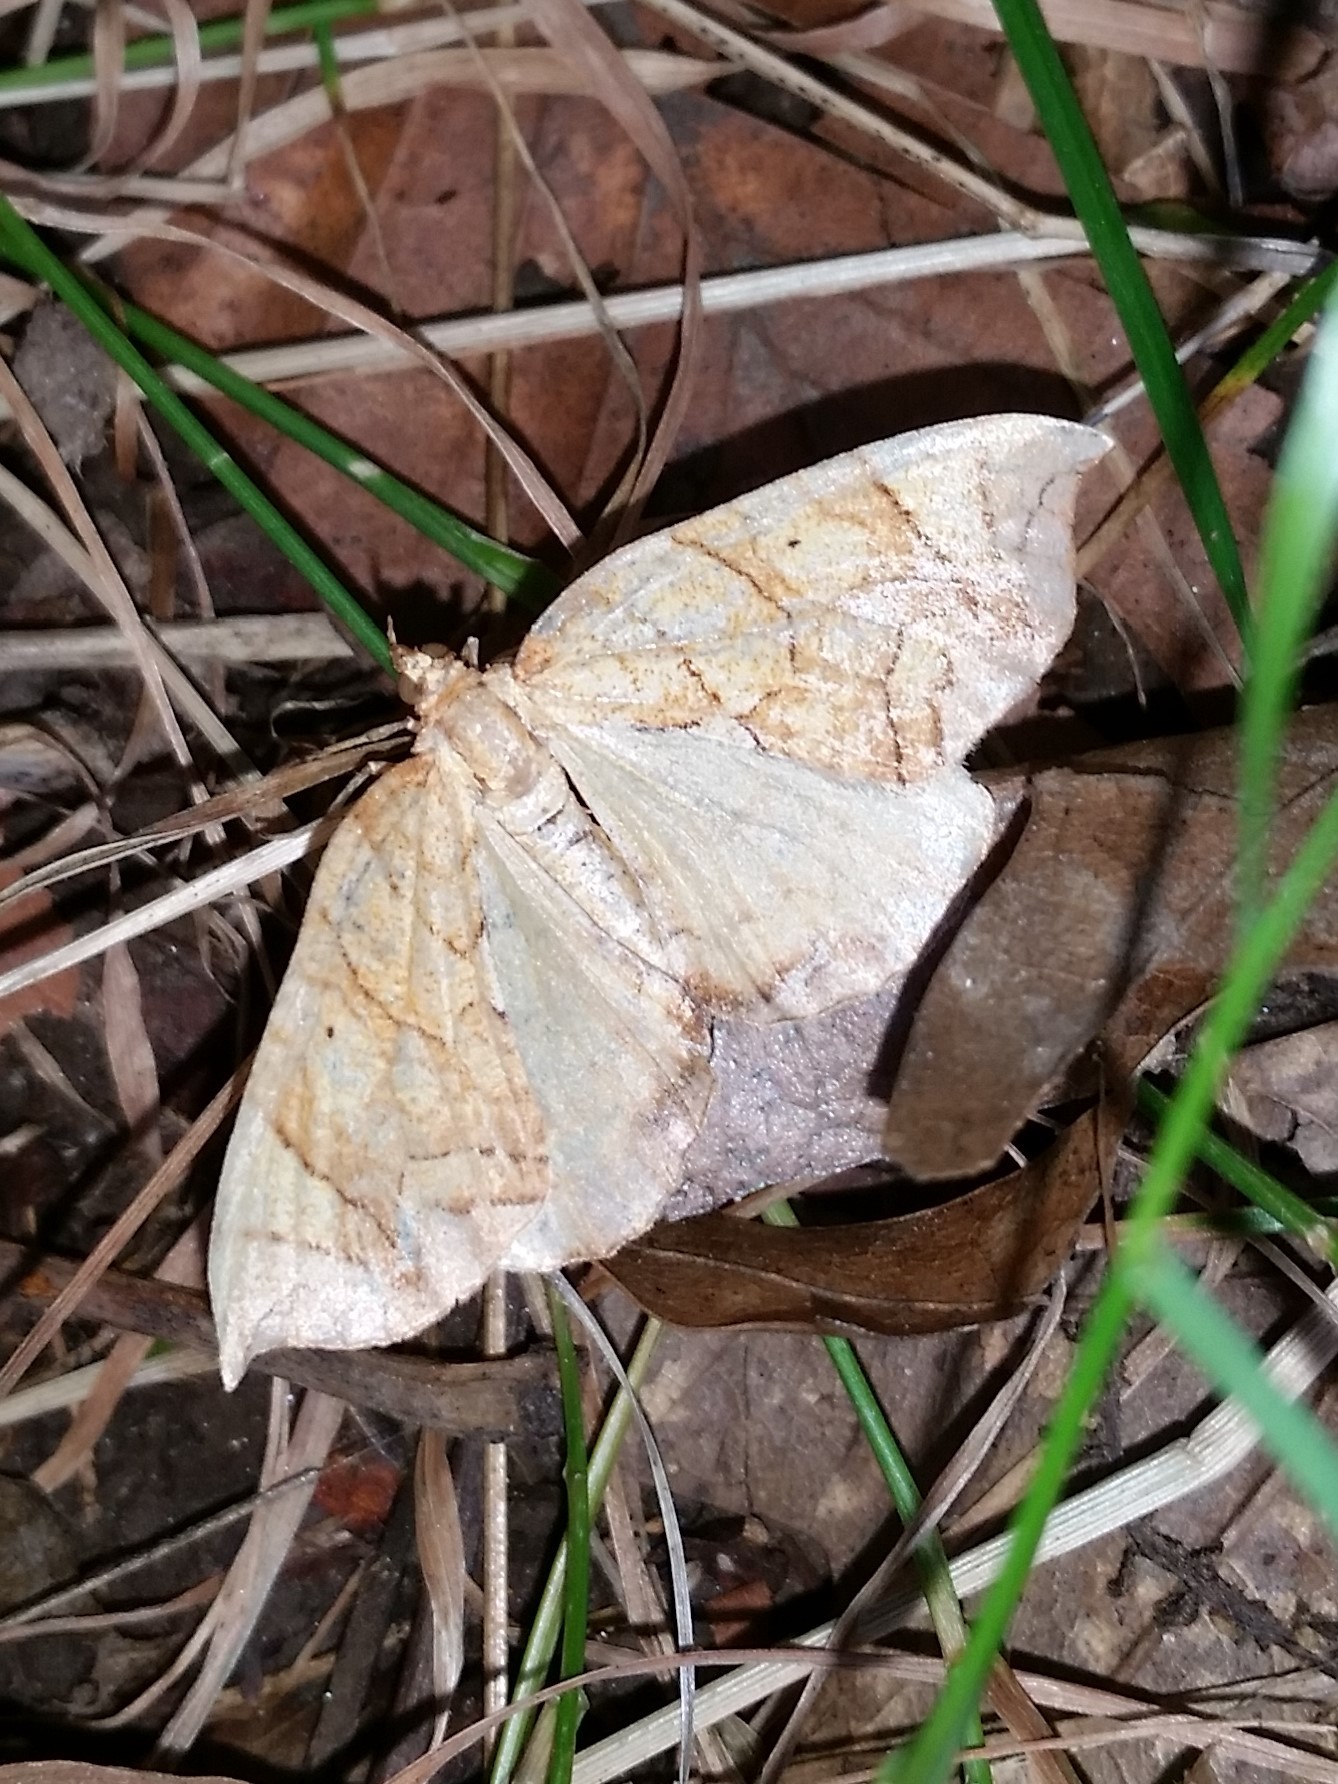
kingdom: Animalia
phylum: Arthropoda
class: Insecta
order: Lepidoptera
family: Geometridae
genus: Eulithis
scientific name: Eulithis gracilineata
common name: Greater grapevine looper moth
